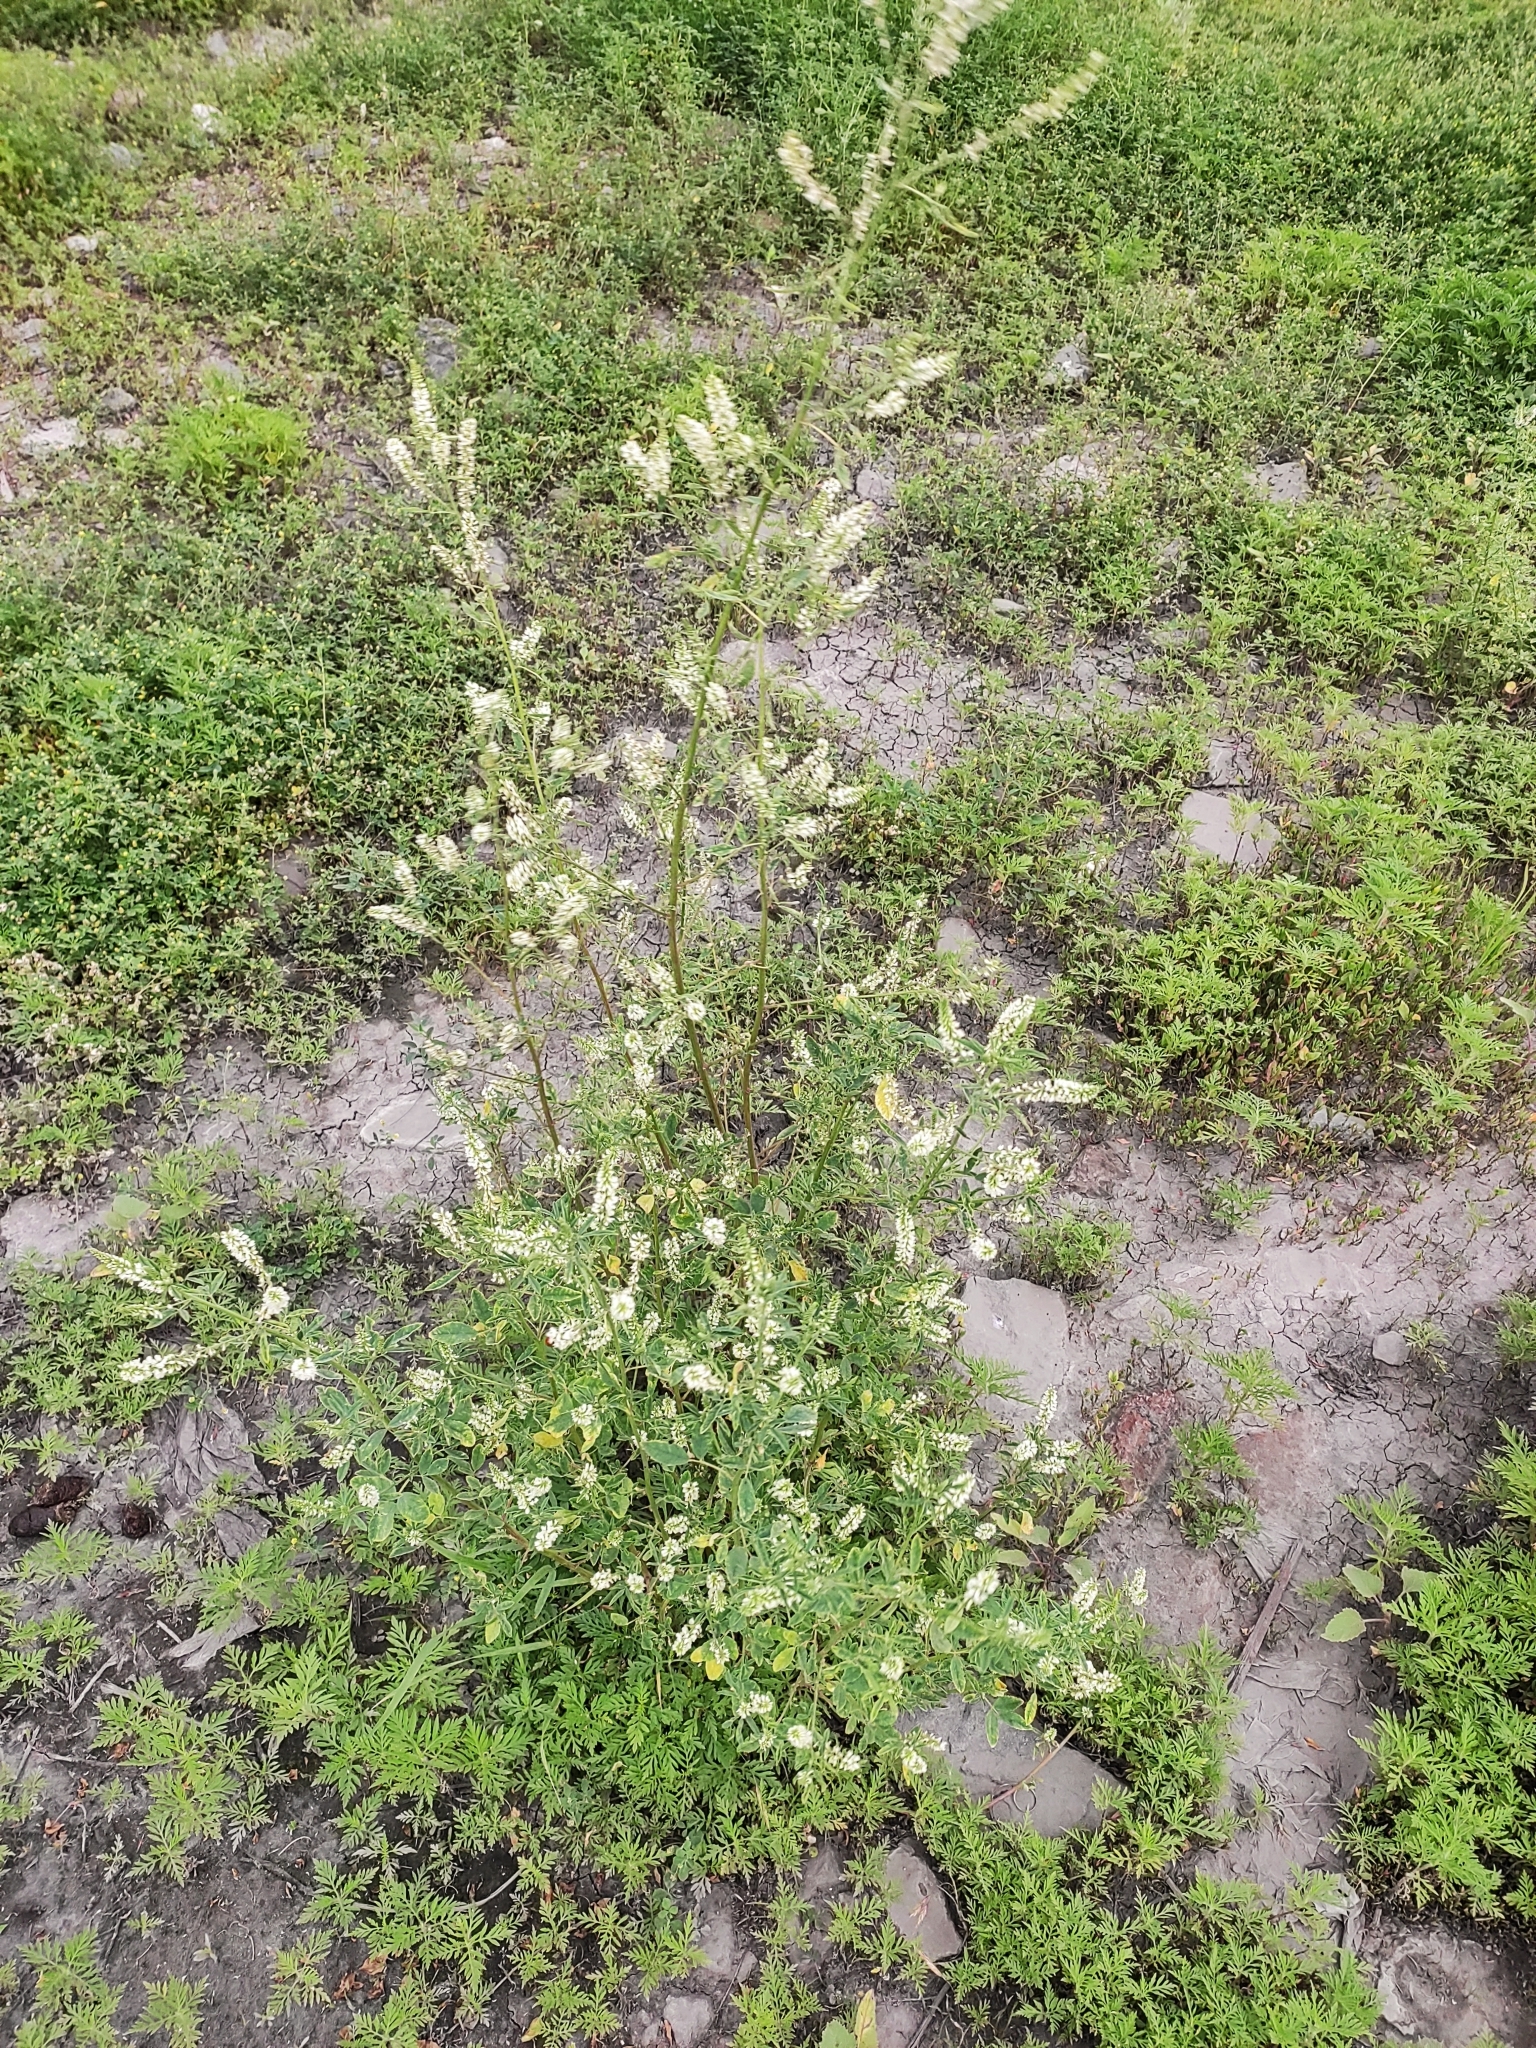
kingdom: Plantae
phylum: Tracheophyta
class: Magnoliopsida
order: Fabales
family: Fabaceae
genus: Melilotus
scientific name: Melilotus albus
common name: White melilot
